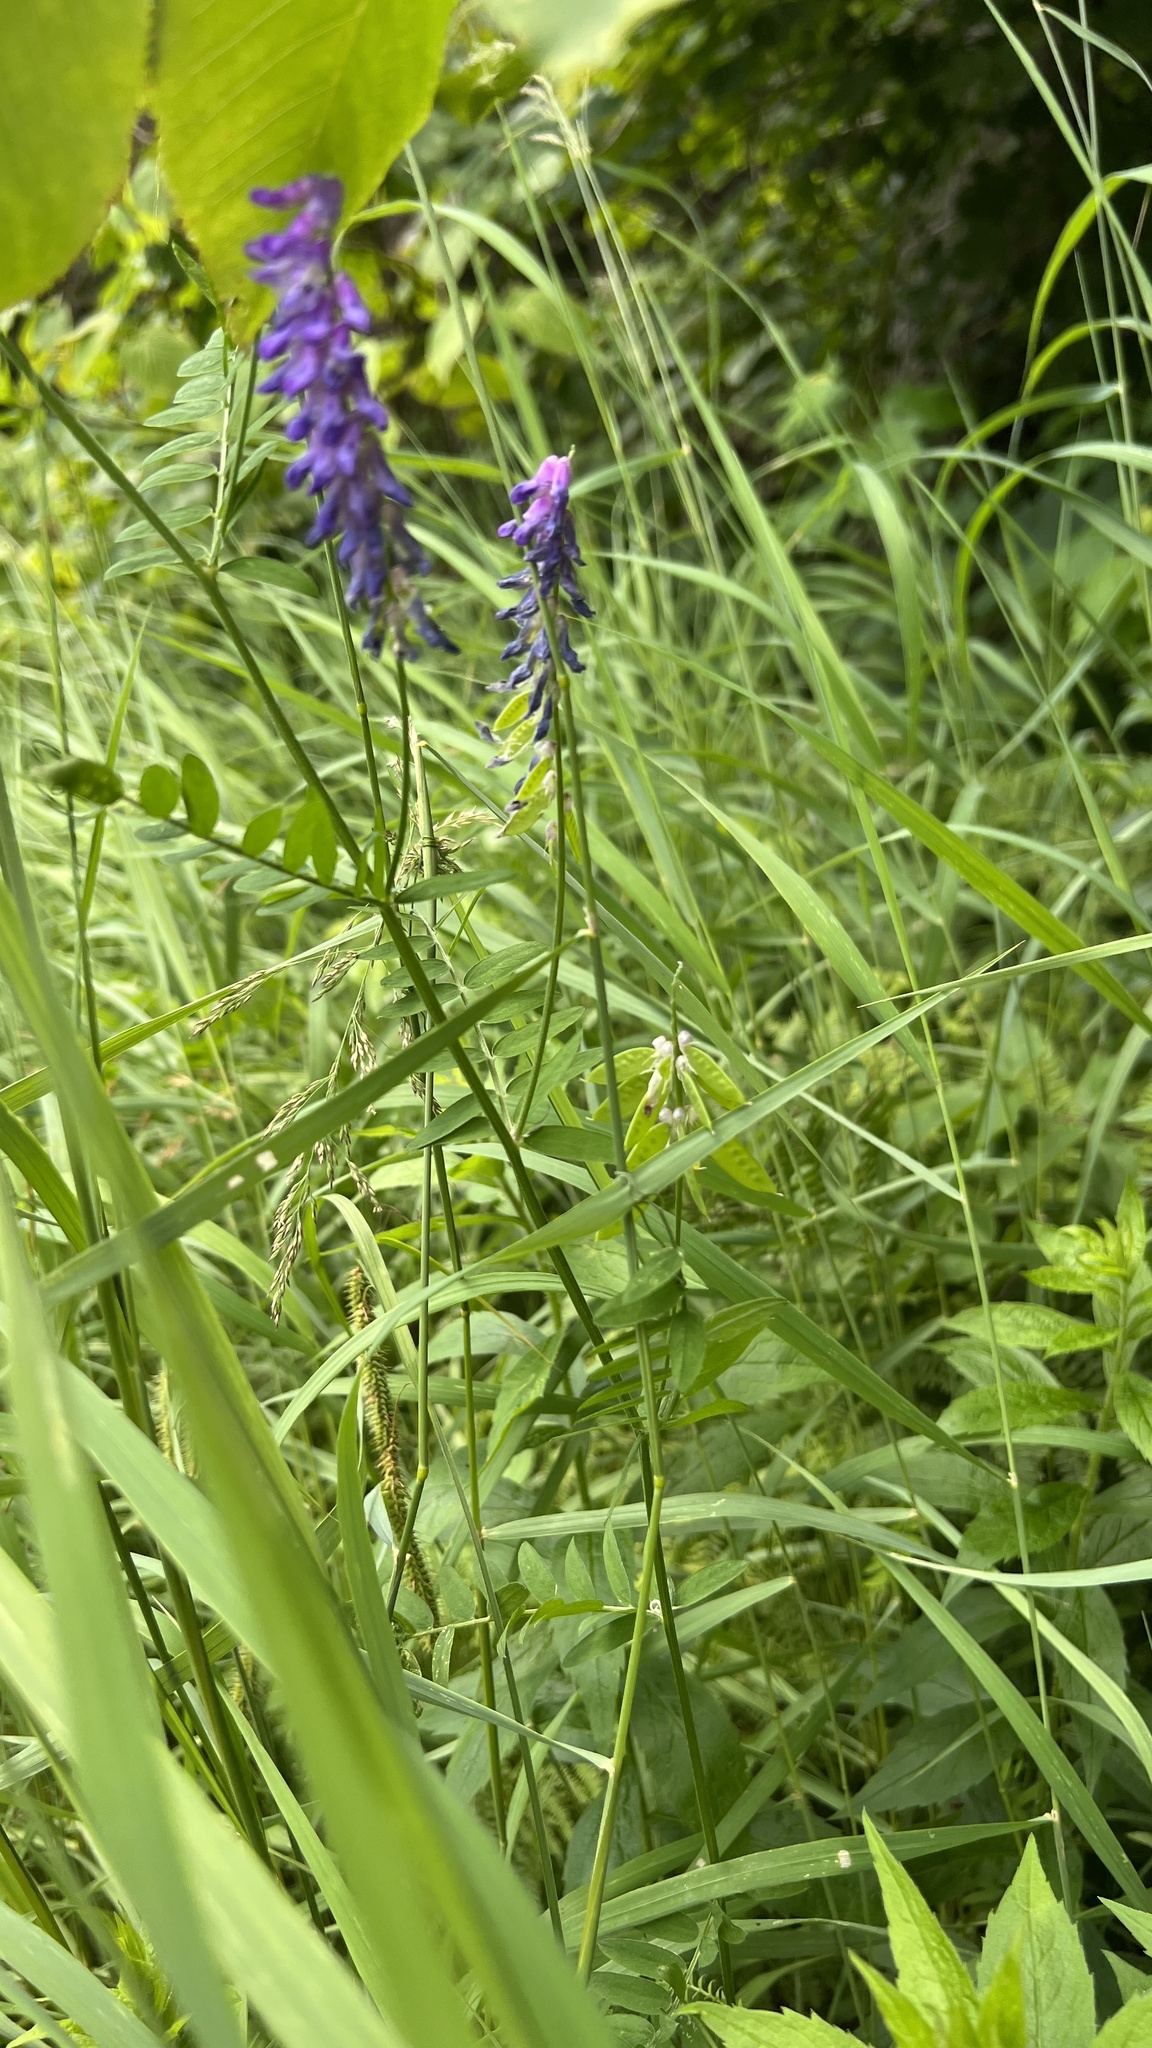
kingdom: Plantae
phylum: Tracheophyta
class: Magnoliopsida
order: Fabales
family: Fabaceae
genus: Vicia
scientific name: Vicia cracca
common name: Bird vetch
